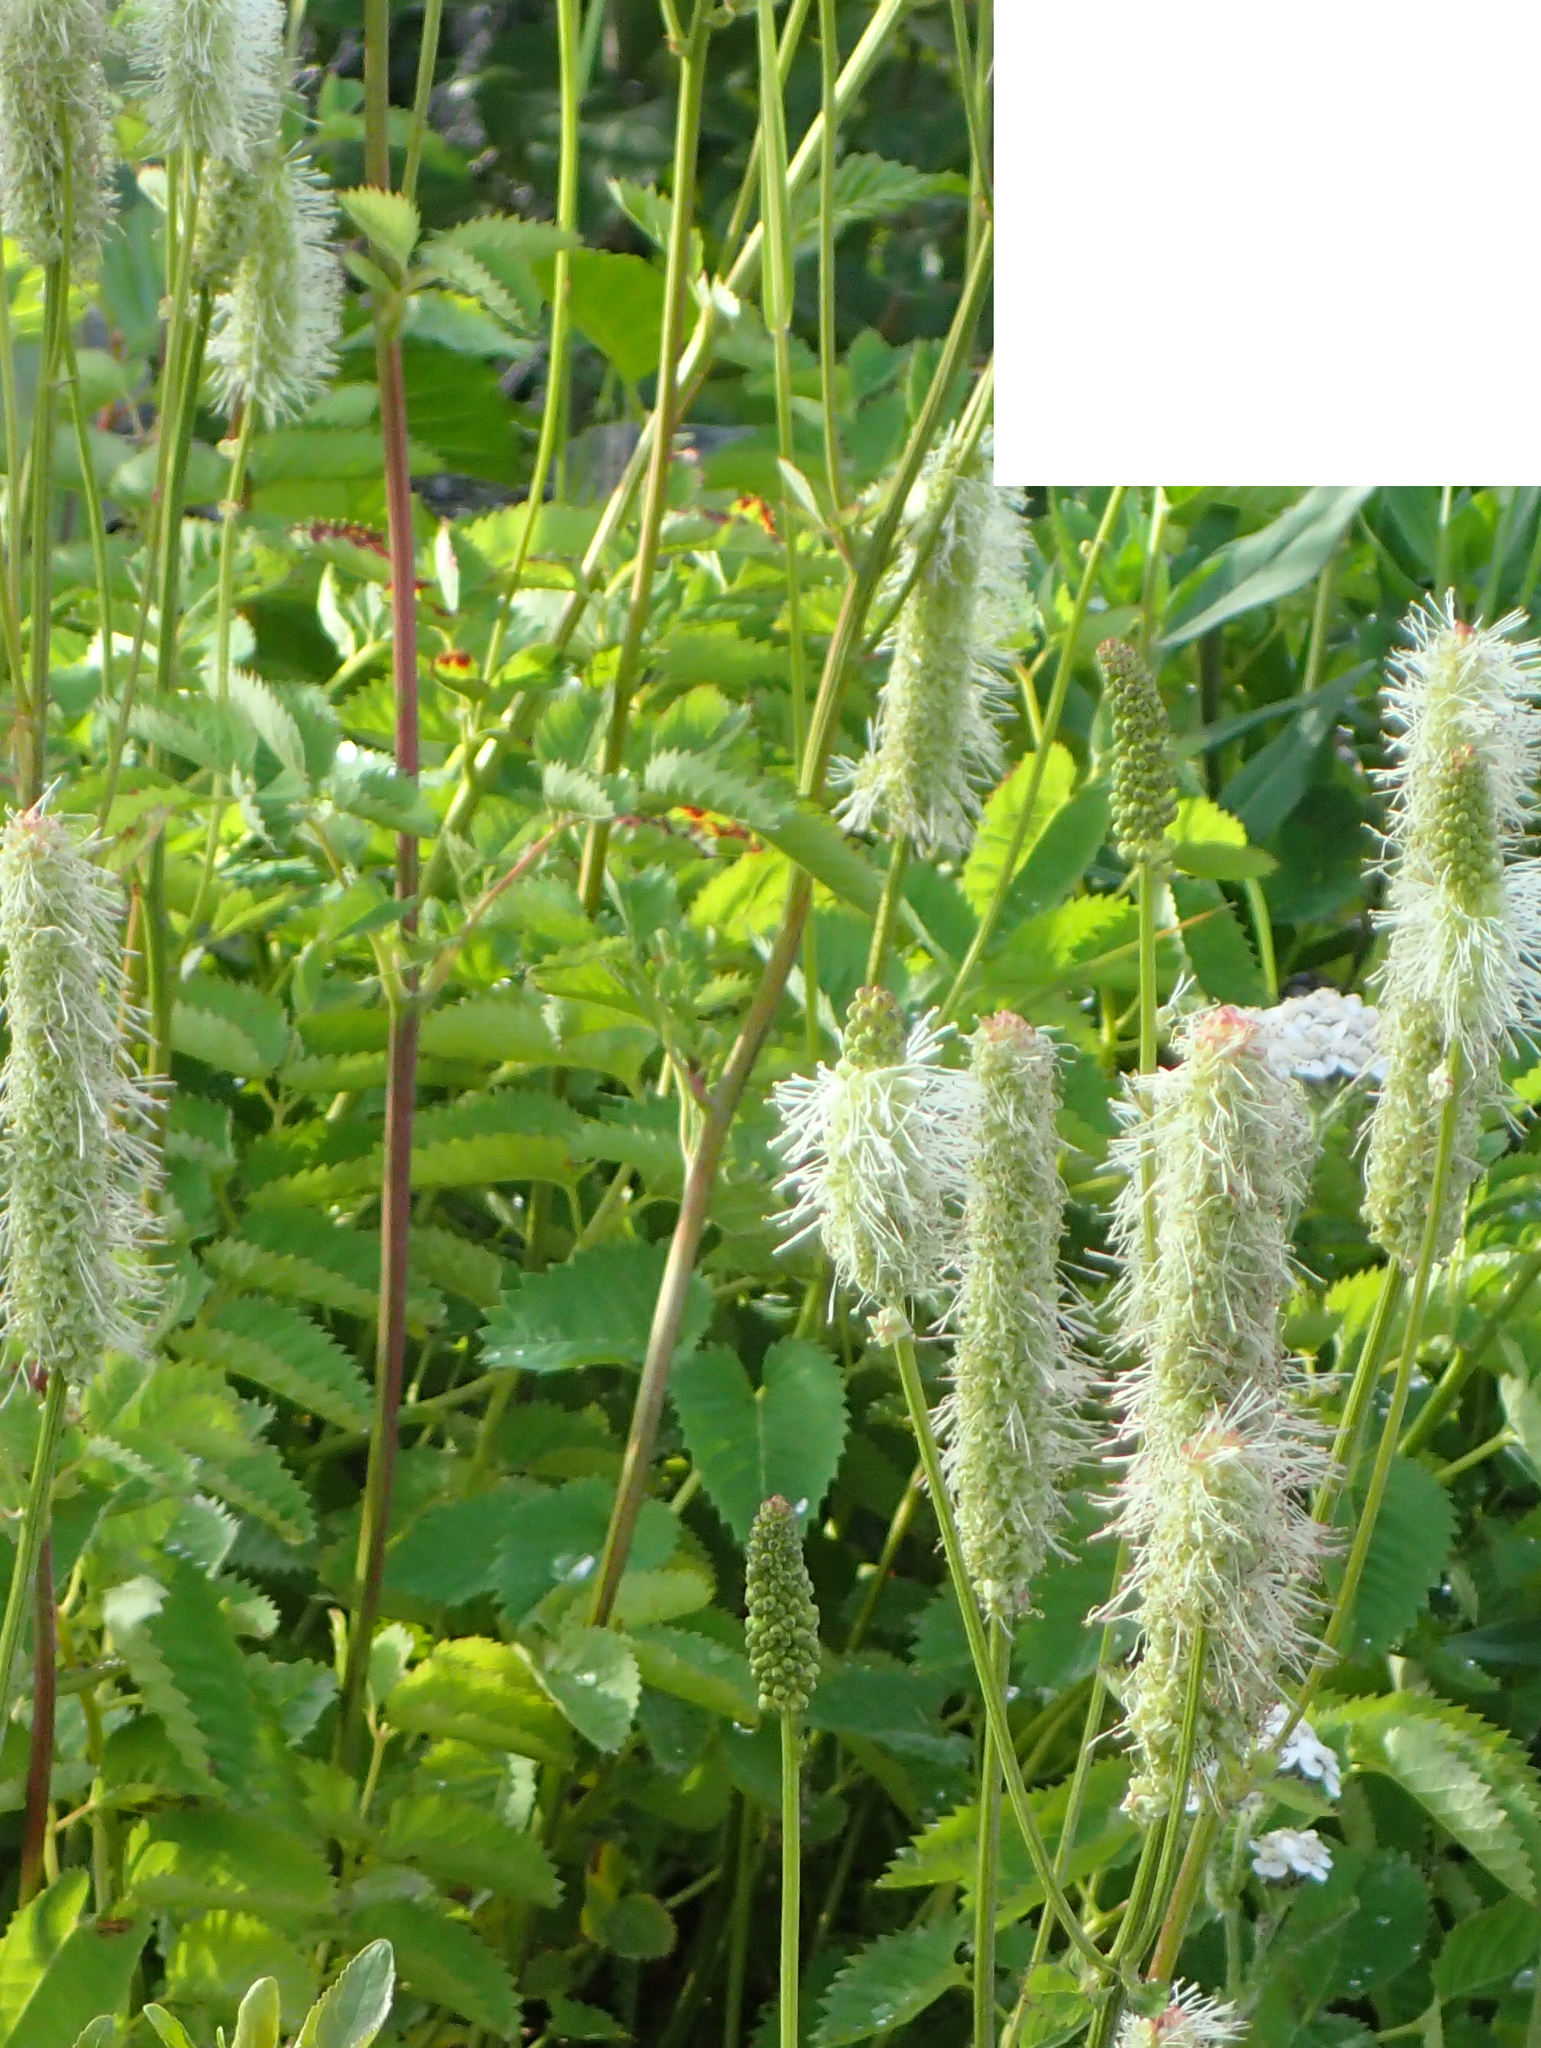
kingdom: Plantae
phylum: Tracheophyta
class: Magnoliopsida
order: Rosales
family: Rosaceae
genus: Sanguisorba
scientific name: Sanguisorba stipulata
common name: Sitka burnet
